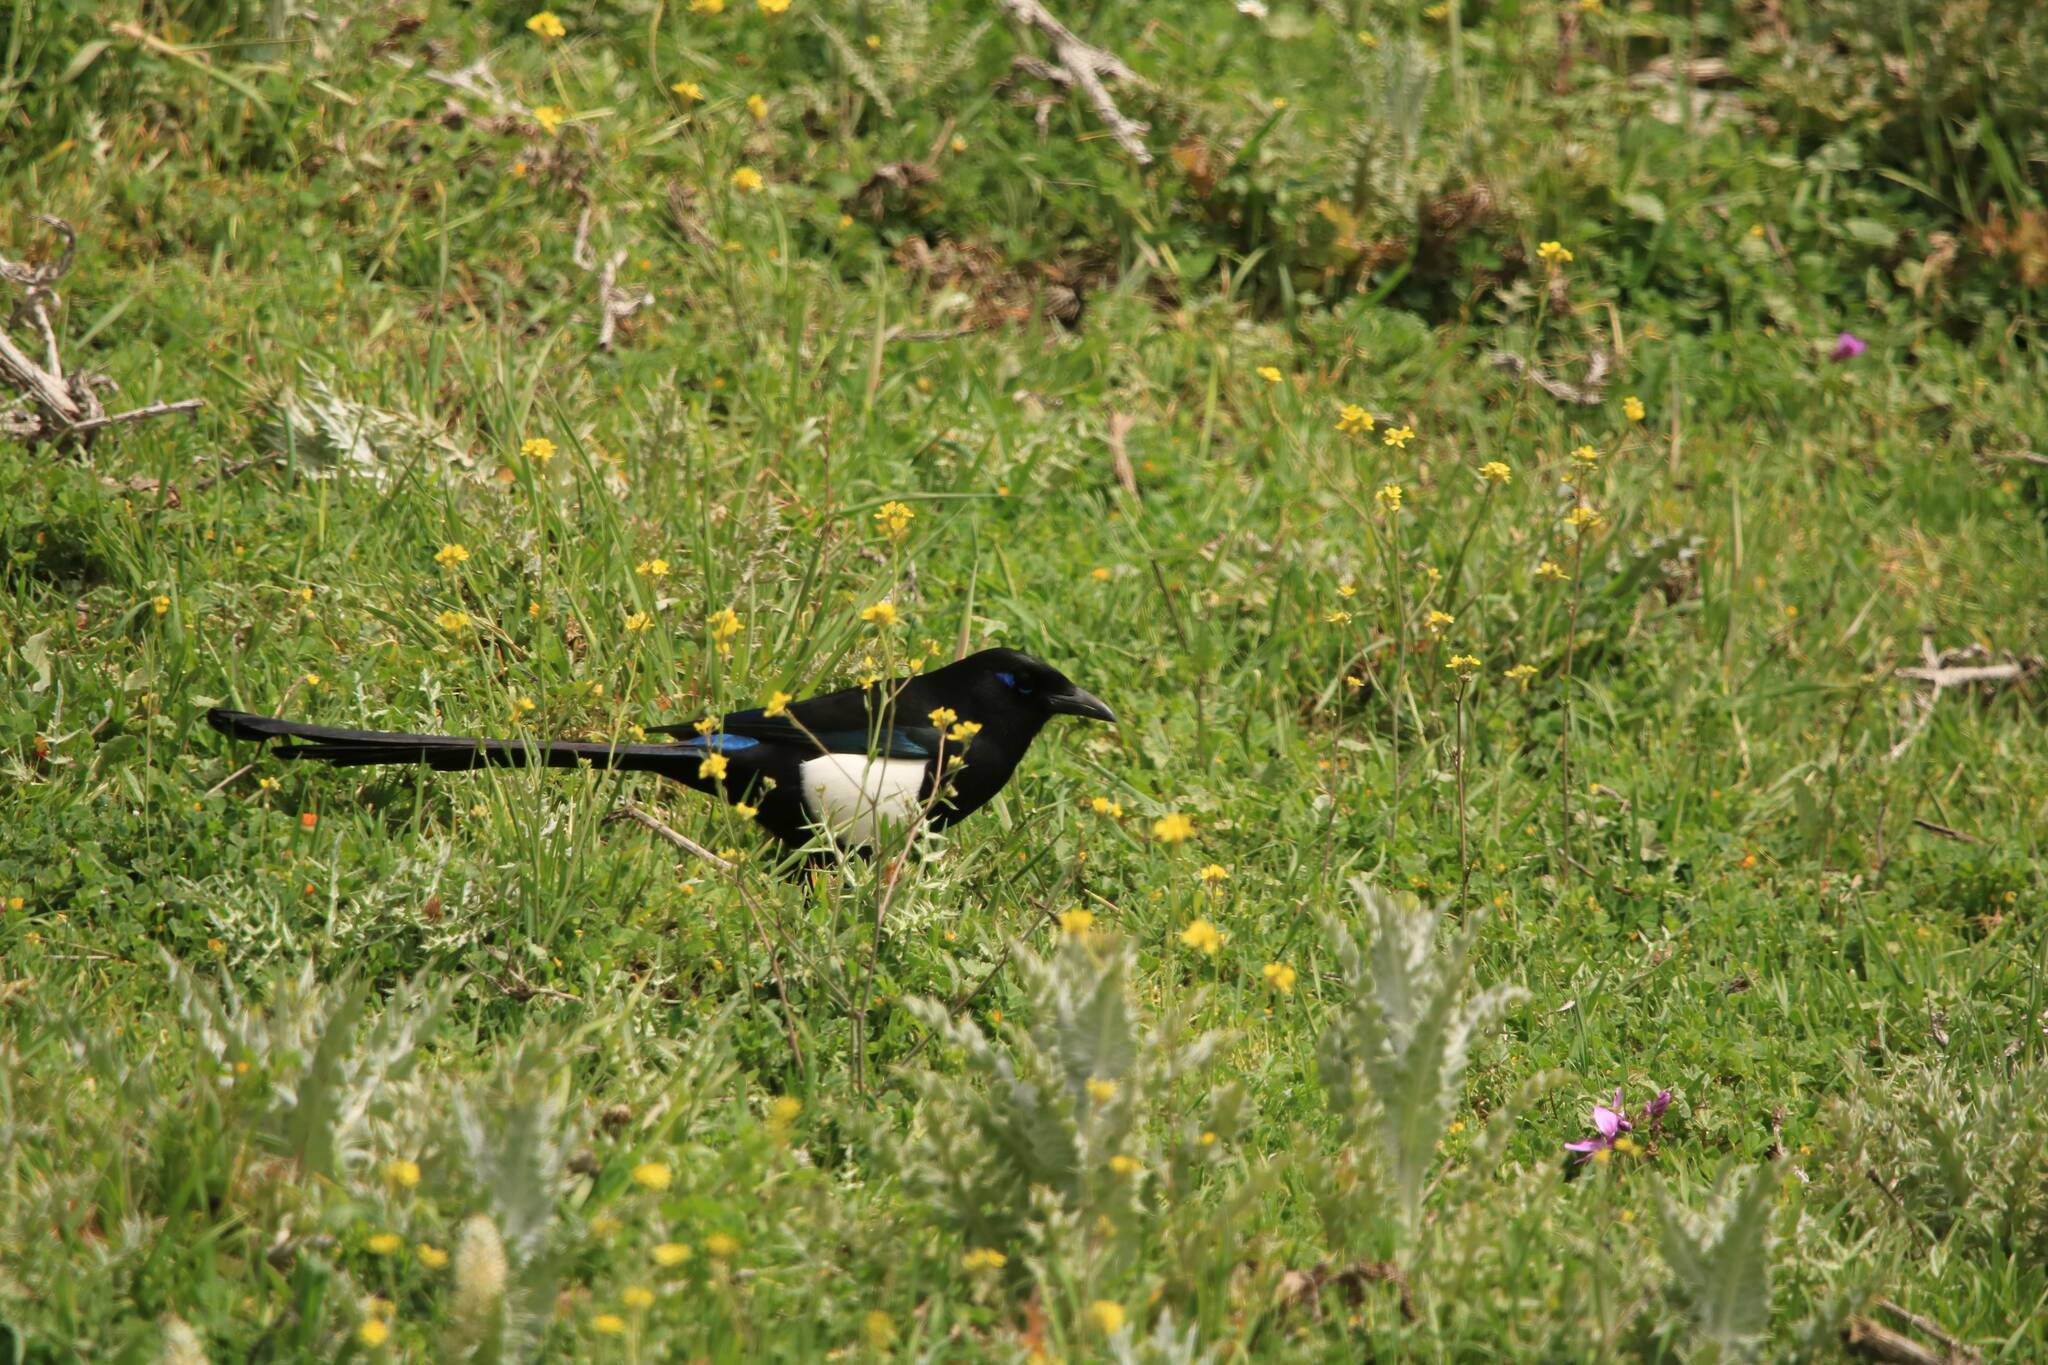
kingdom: Animalia
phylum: Chordata
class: Aves
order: Passeriformes
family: Corvidae
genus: Pica
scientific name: Pica mauritanica
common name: Maghreb magpie
